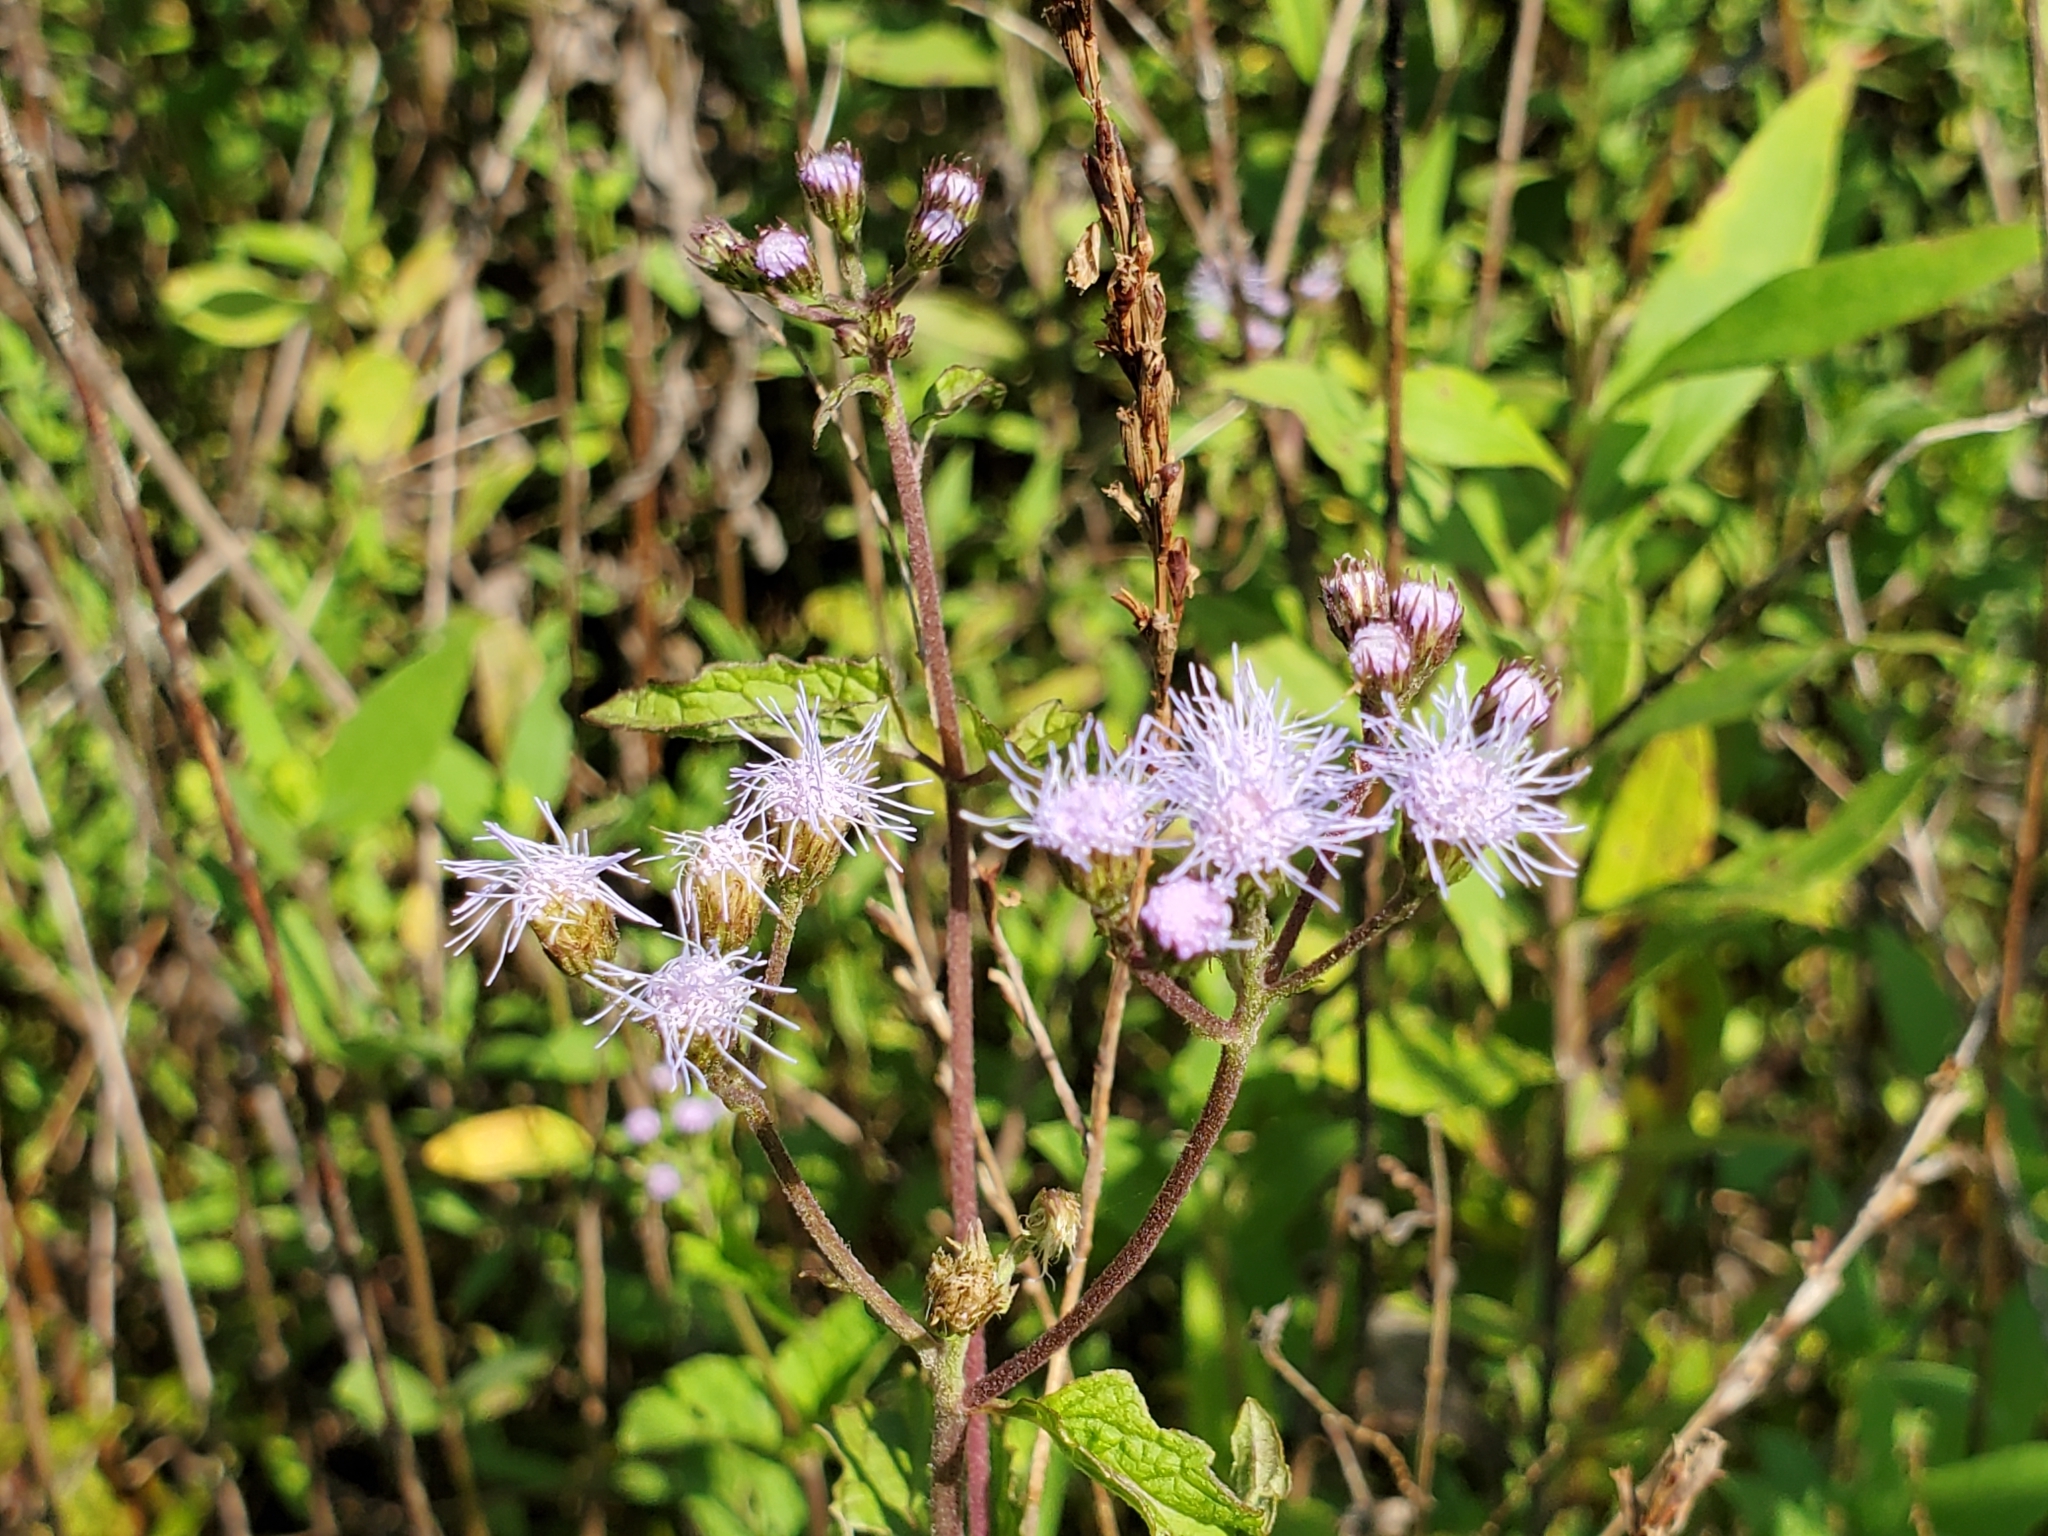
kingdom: Plantae
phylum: Tracheophyta
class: Magnoliopsida
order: Asterales
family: Asteraceae
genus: Conoclinium
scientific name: Conoclinium coelestinum
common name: Blue mistflower
